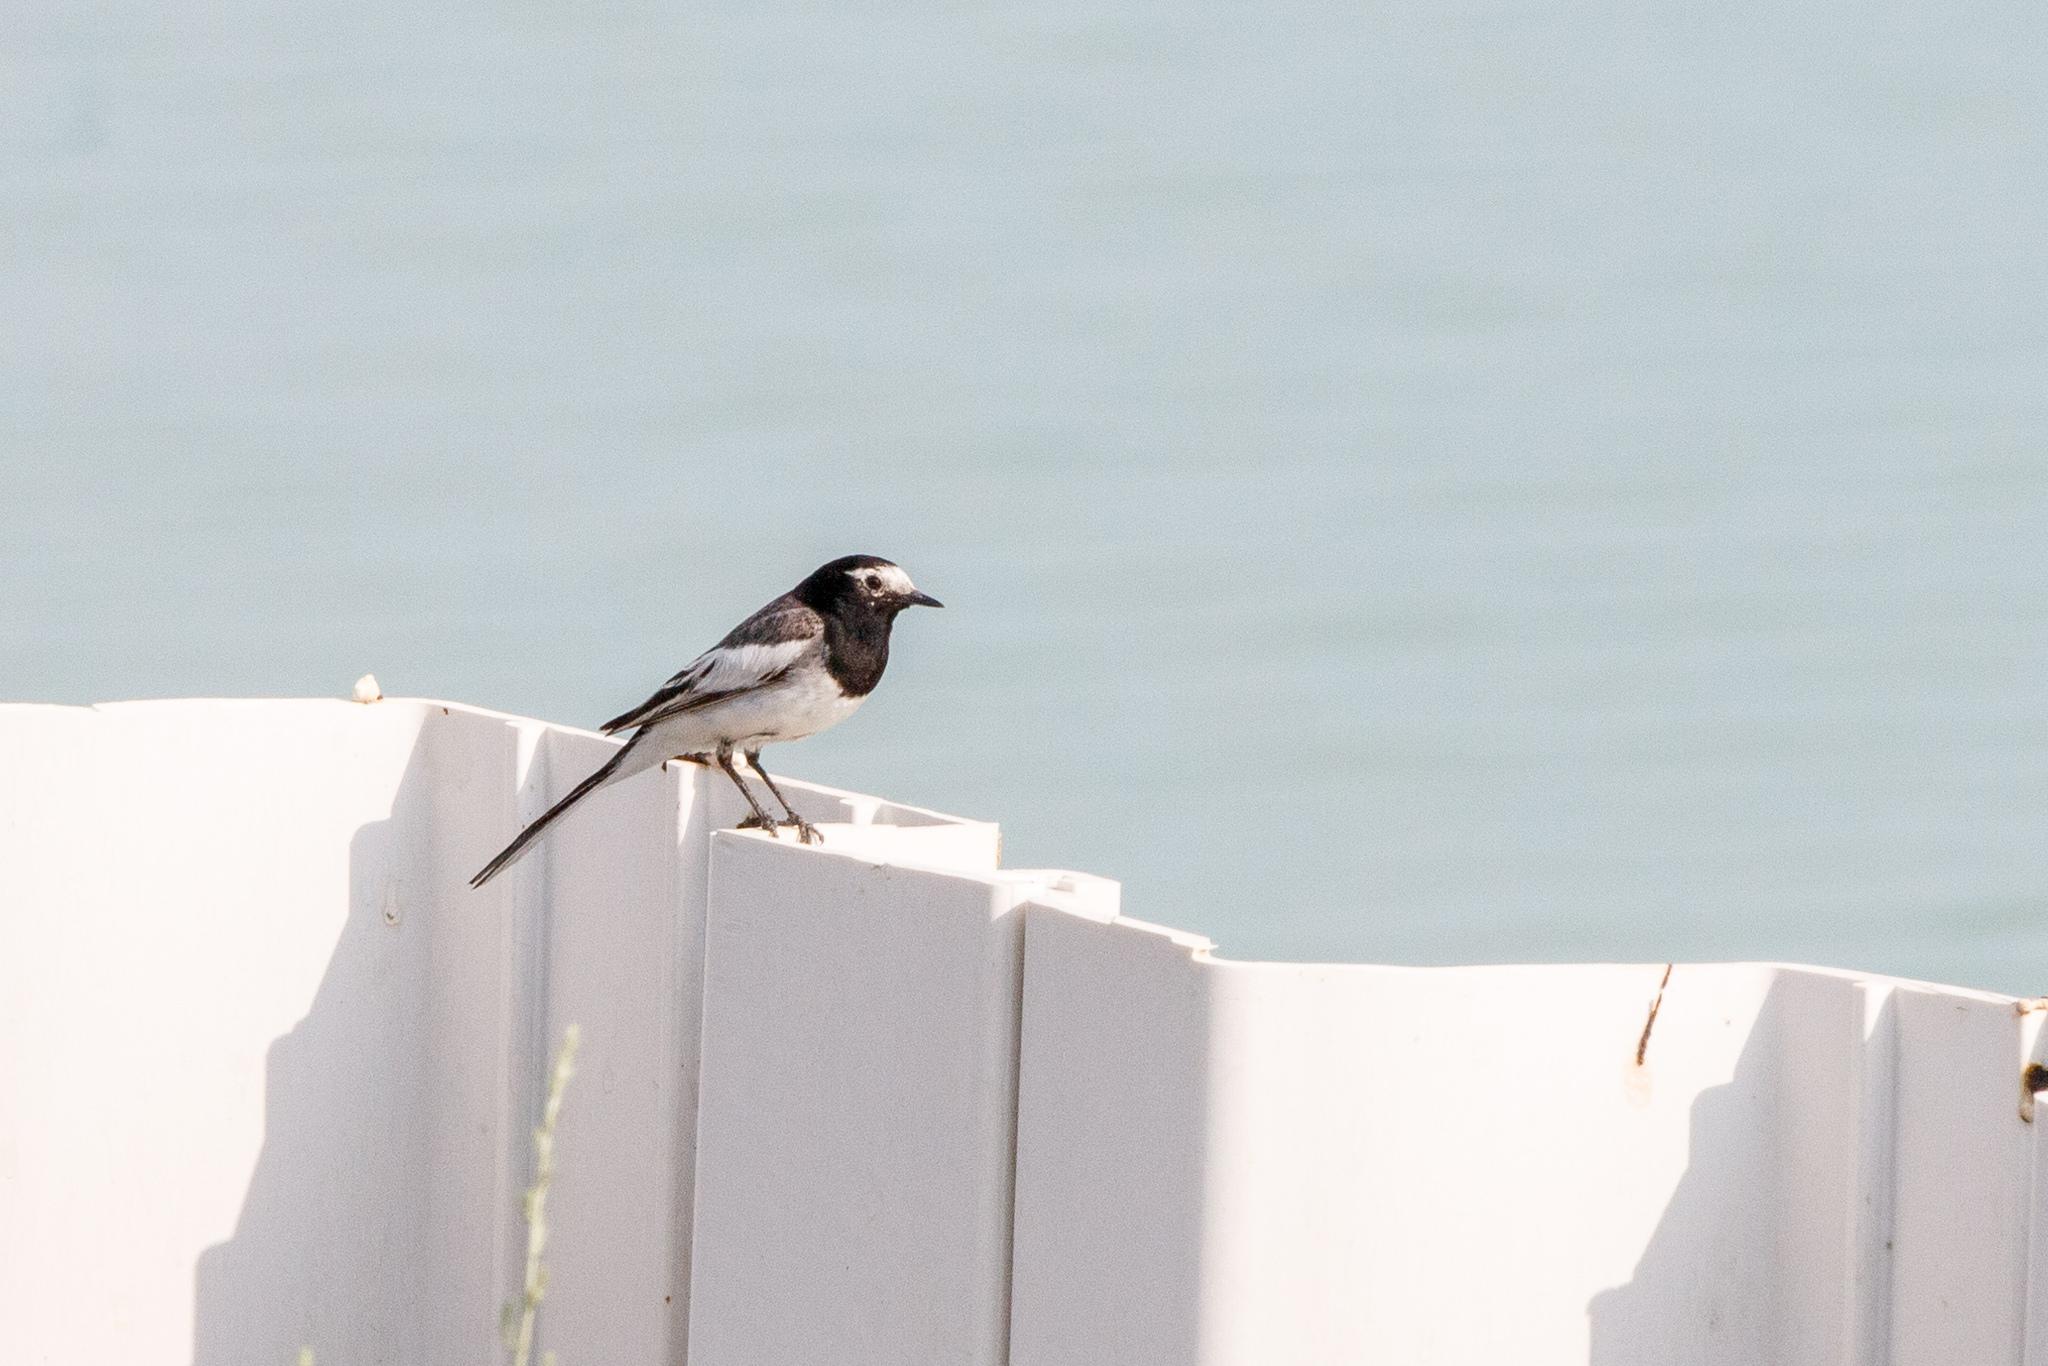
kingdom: Animalia
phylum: Chordata
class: Aves
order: Passeriformes
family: Motacillidae
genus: Motacilla
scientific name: Motacilla alba
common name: White wagtail
